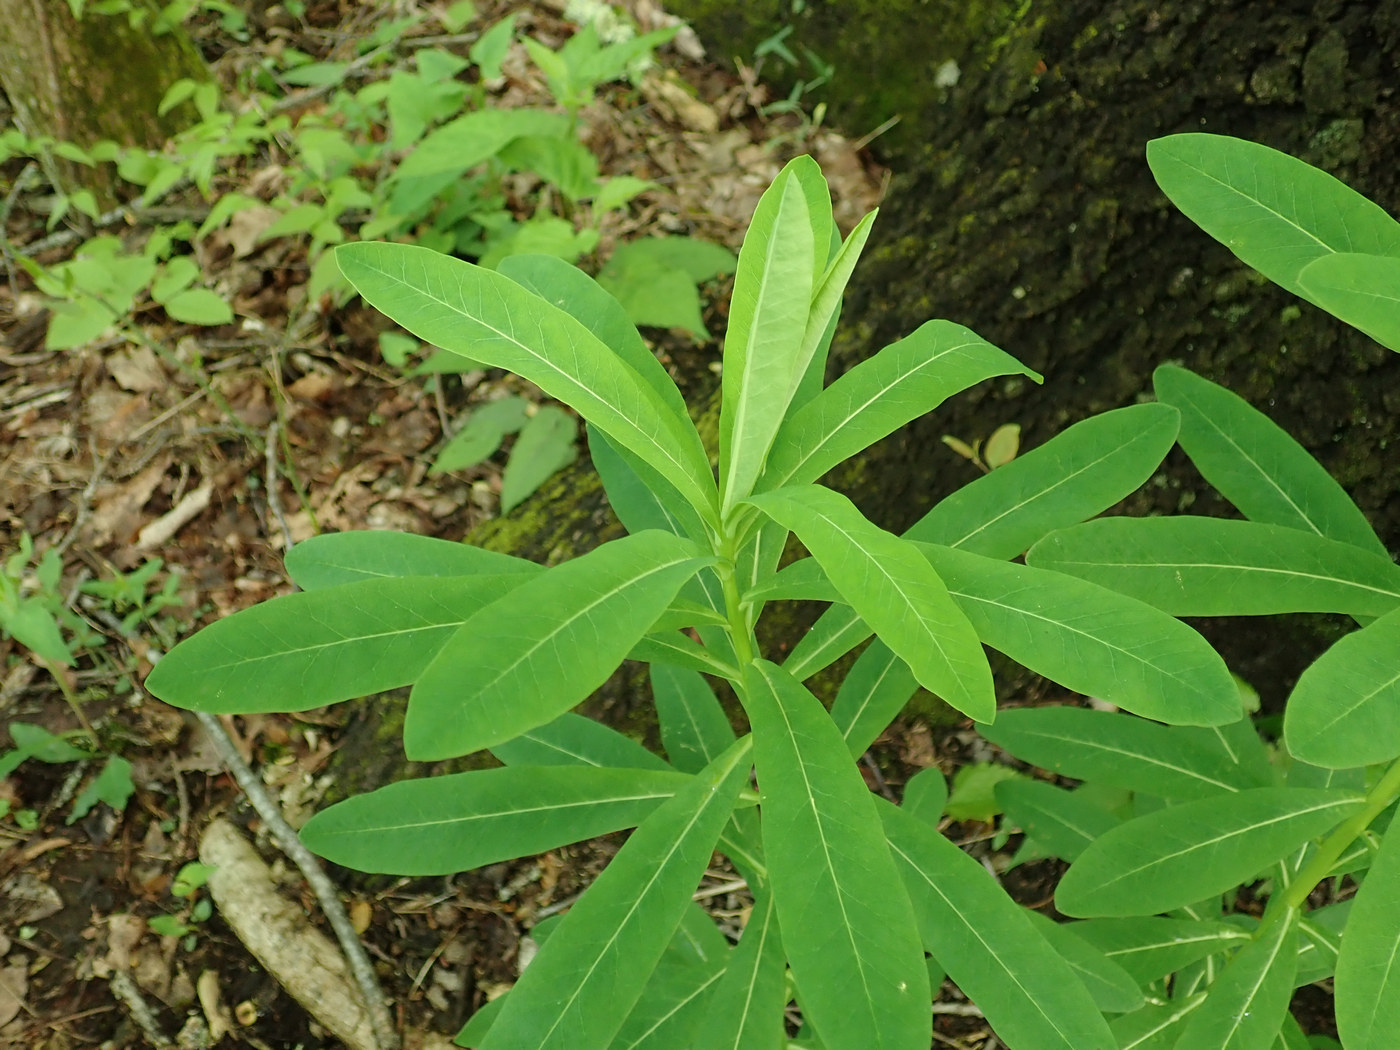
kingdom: Plantae
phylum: Tracheophyta
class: Magnoliopsida
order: Malpighiales
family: Euphorbiaceae
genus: Euphorbia
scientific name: Euphorbia purpurea
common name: Darlington's spurge
